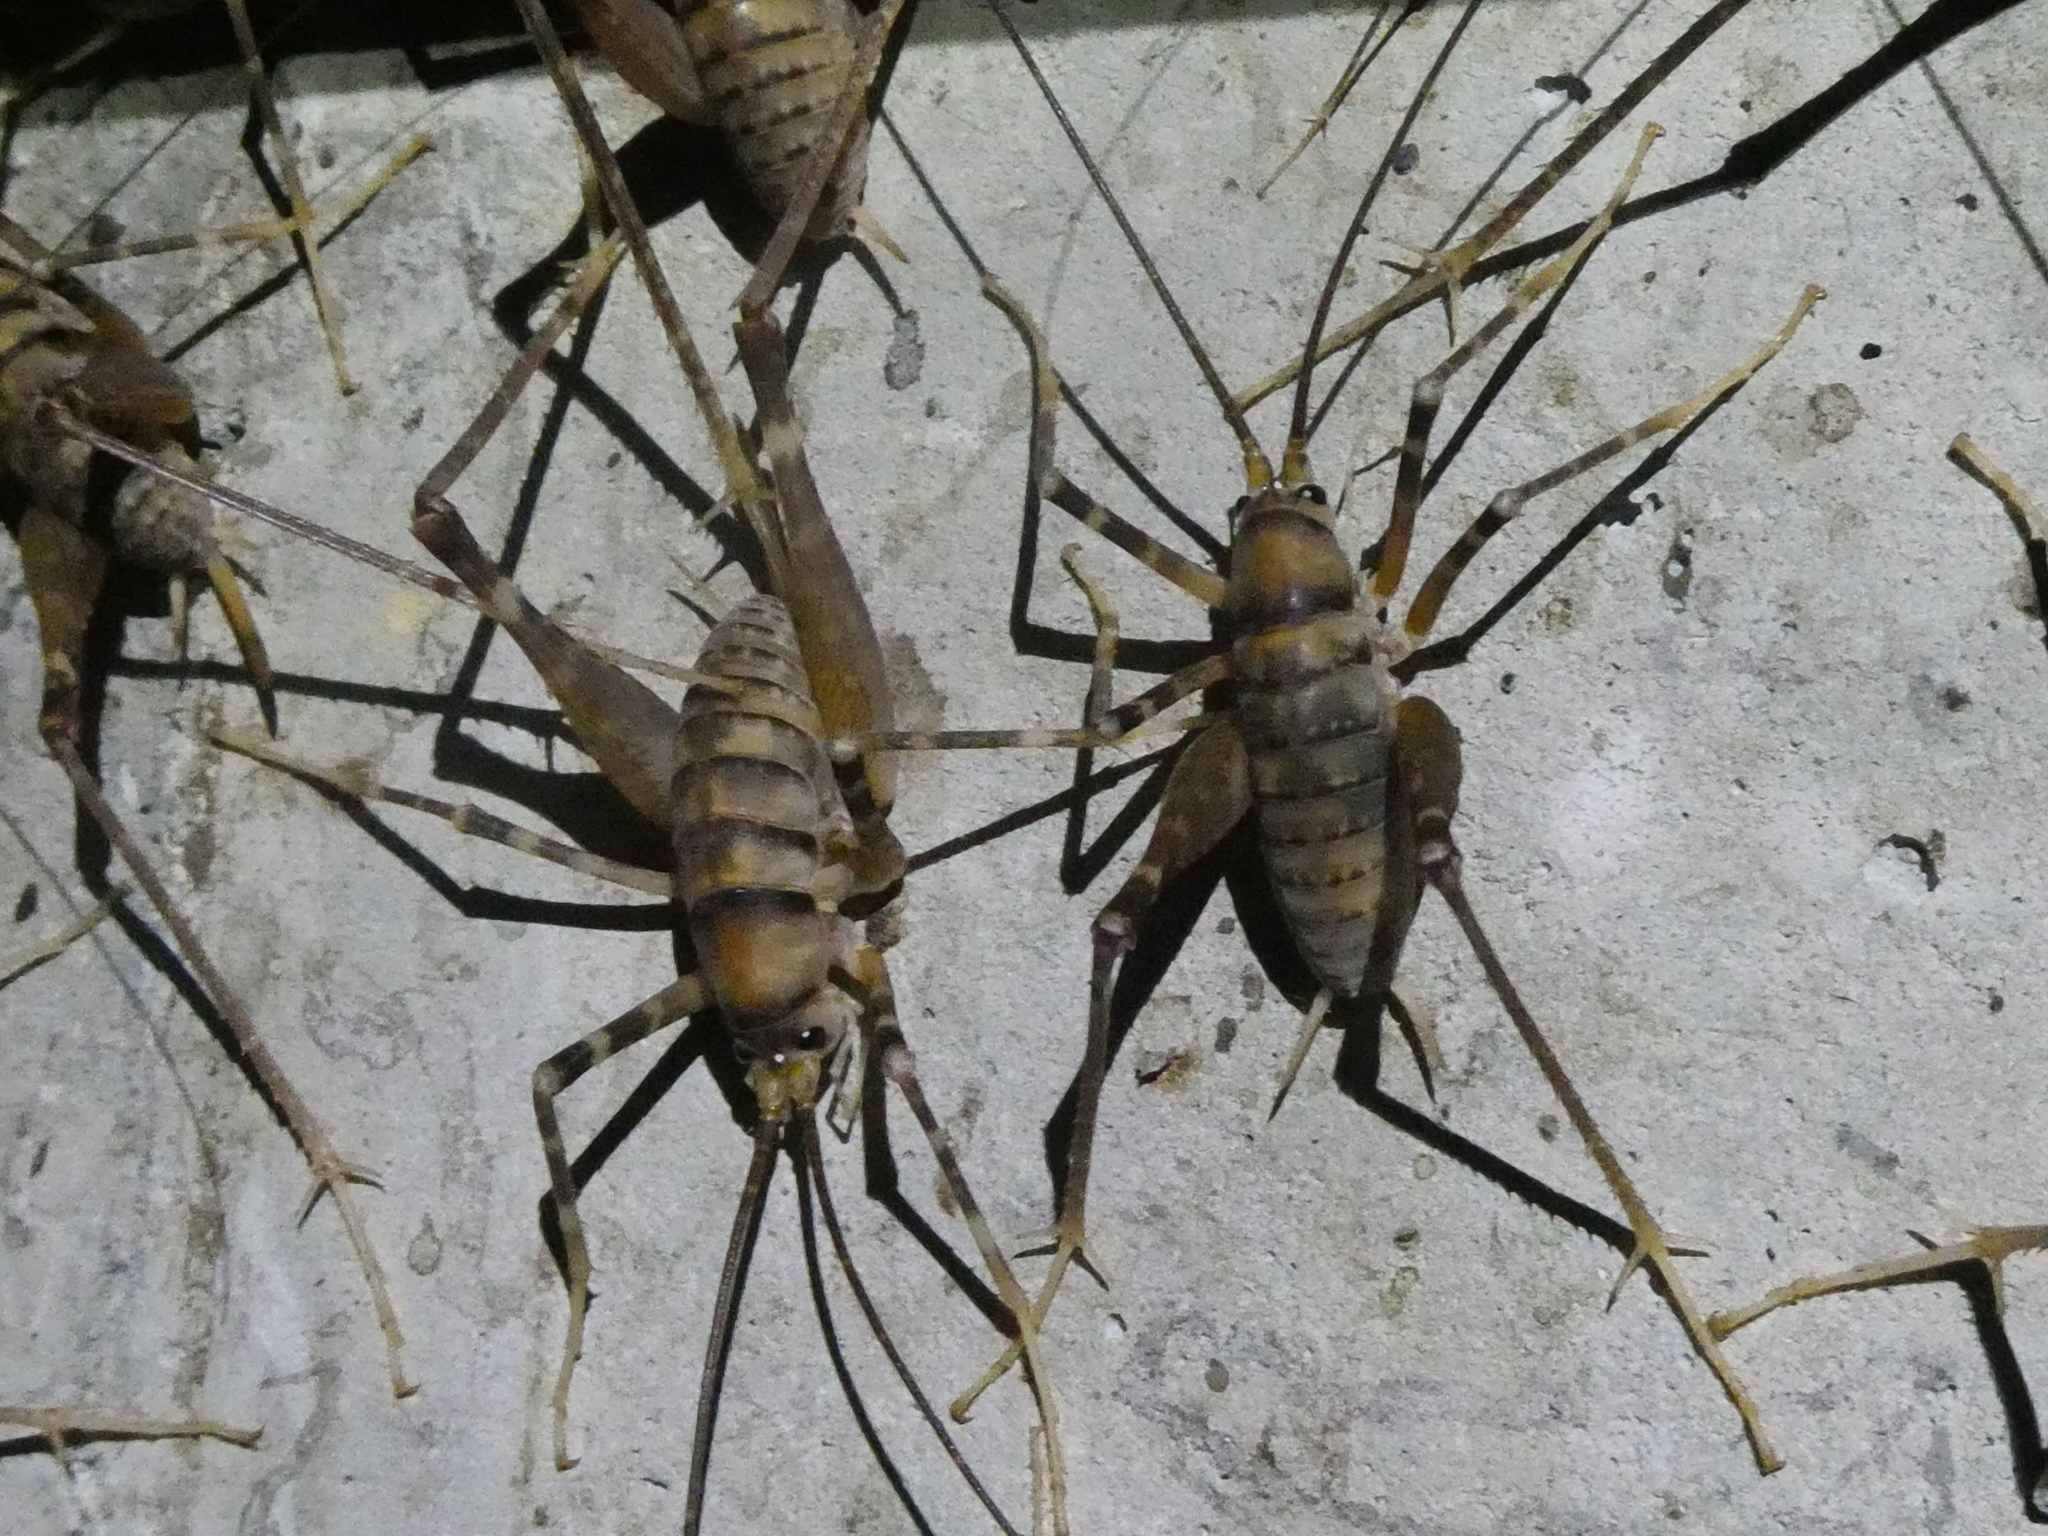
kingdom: Animalia
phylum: Arthropoda
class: Insecta
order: Orthoptera
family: Rhaphidophoridae
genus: Pachyrhamma
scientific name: Pachyrhamma edwardsii
